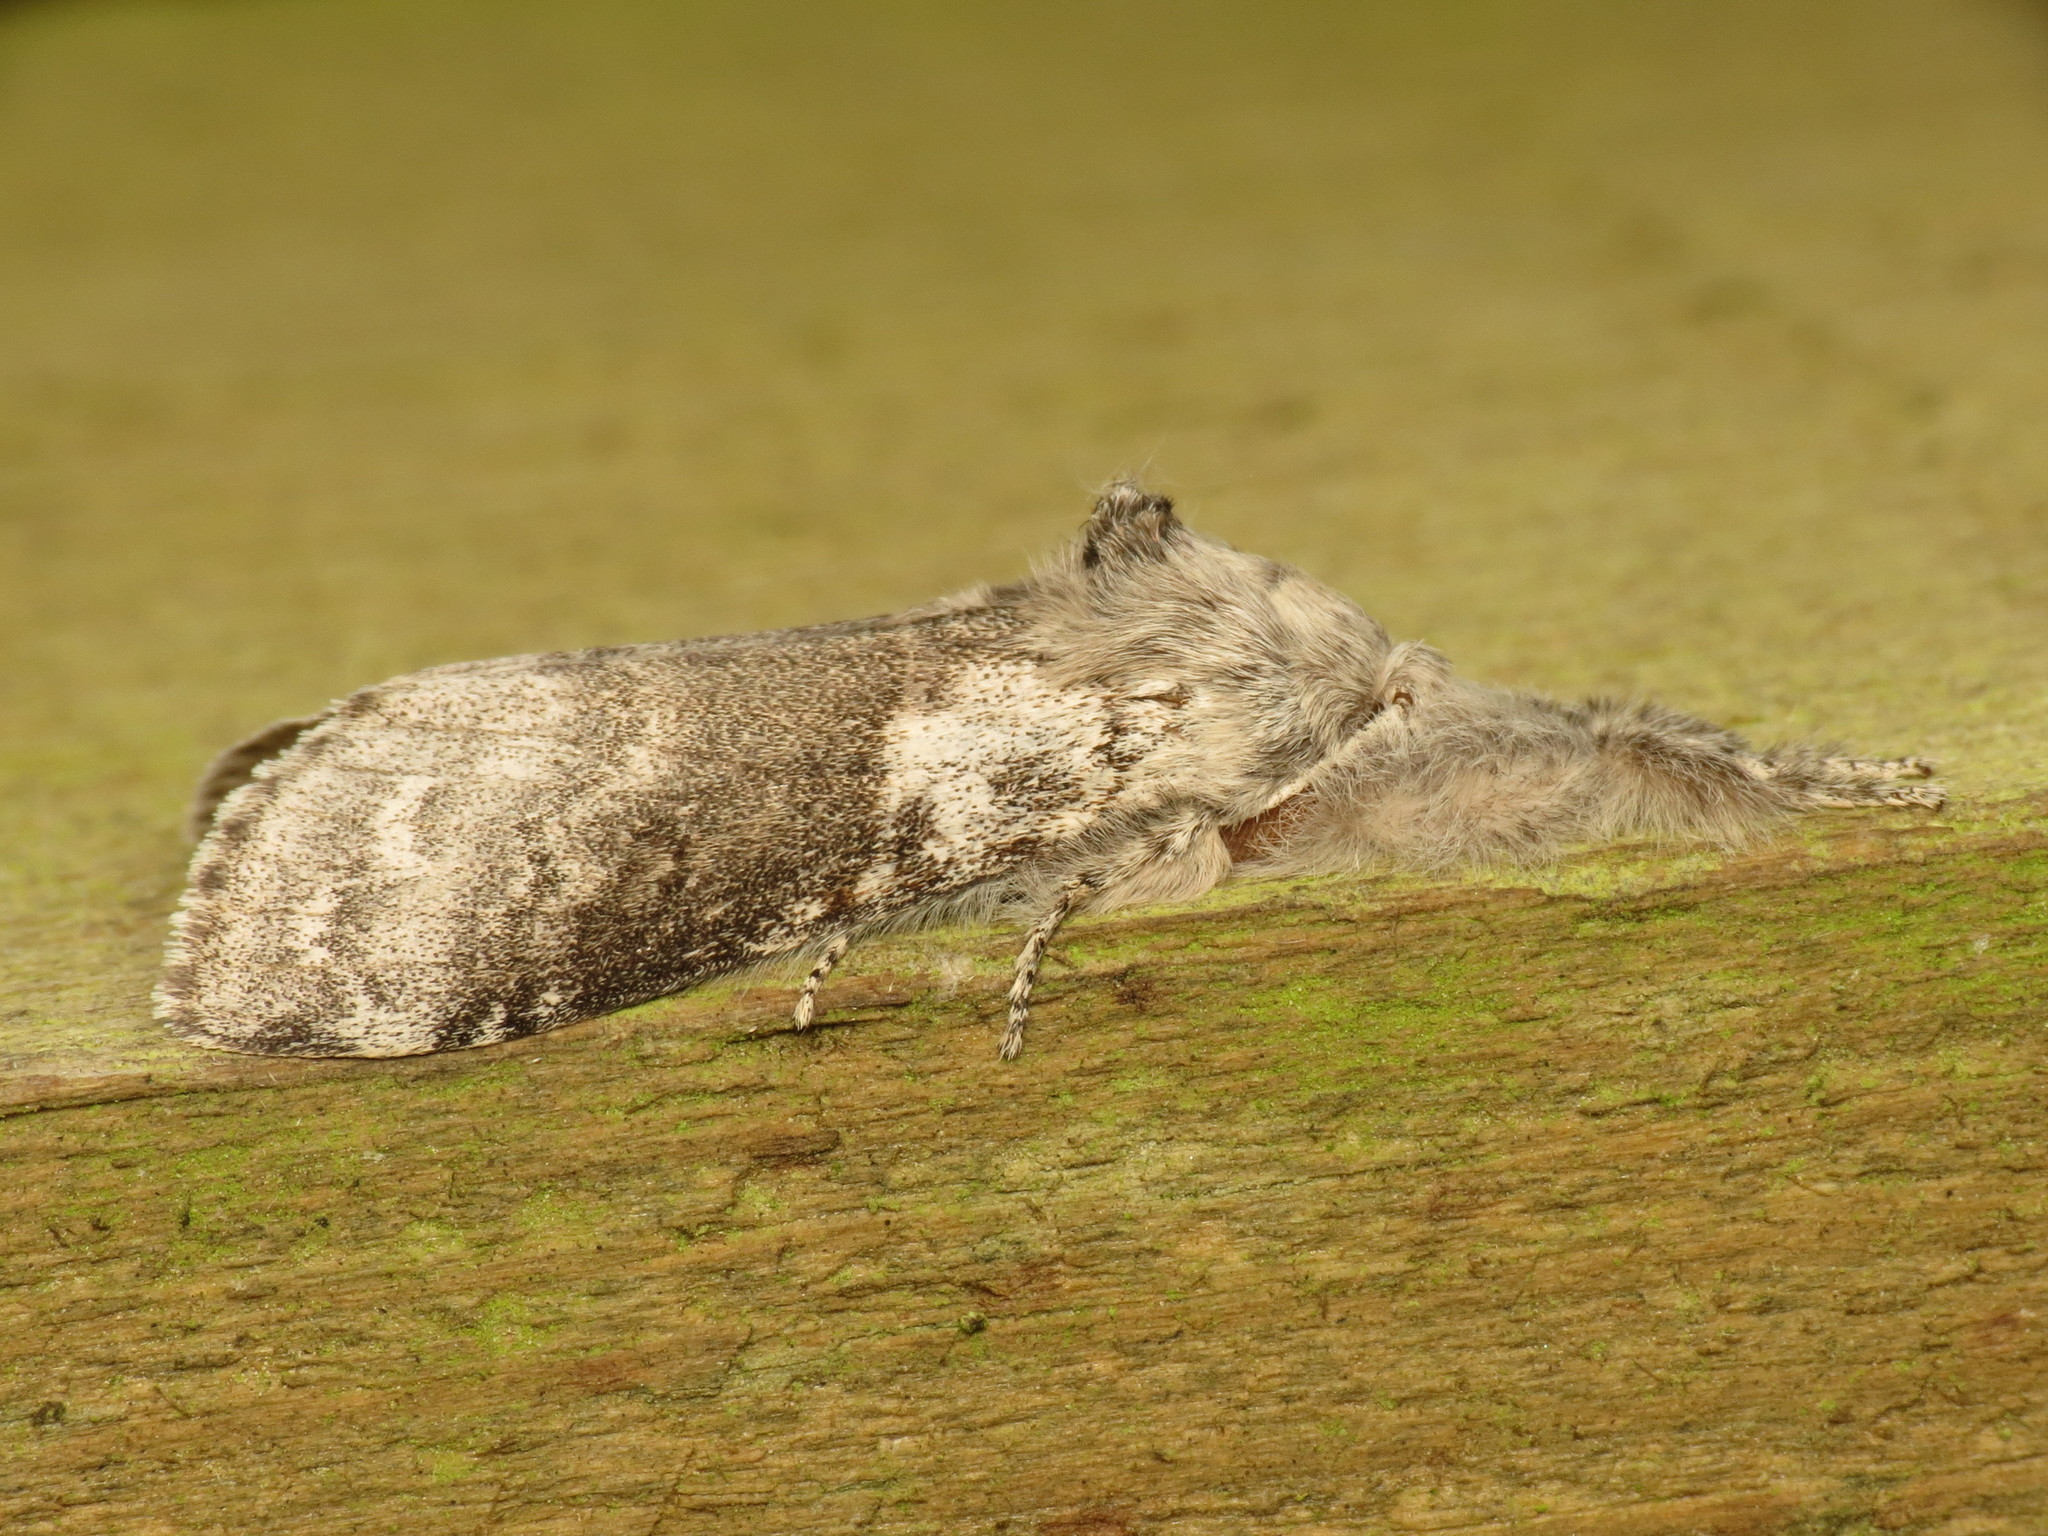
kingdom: Animalia
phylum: Arthropoda
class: Insecta
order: Lepidoptera
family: Erebidae
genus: Calliteara
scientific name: Calliteara pudibunda
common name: Pale tussock
